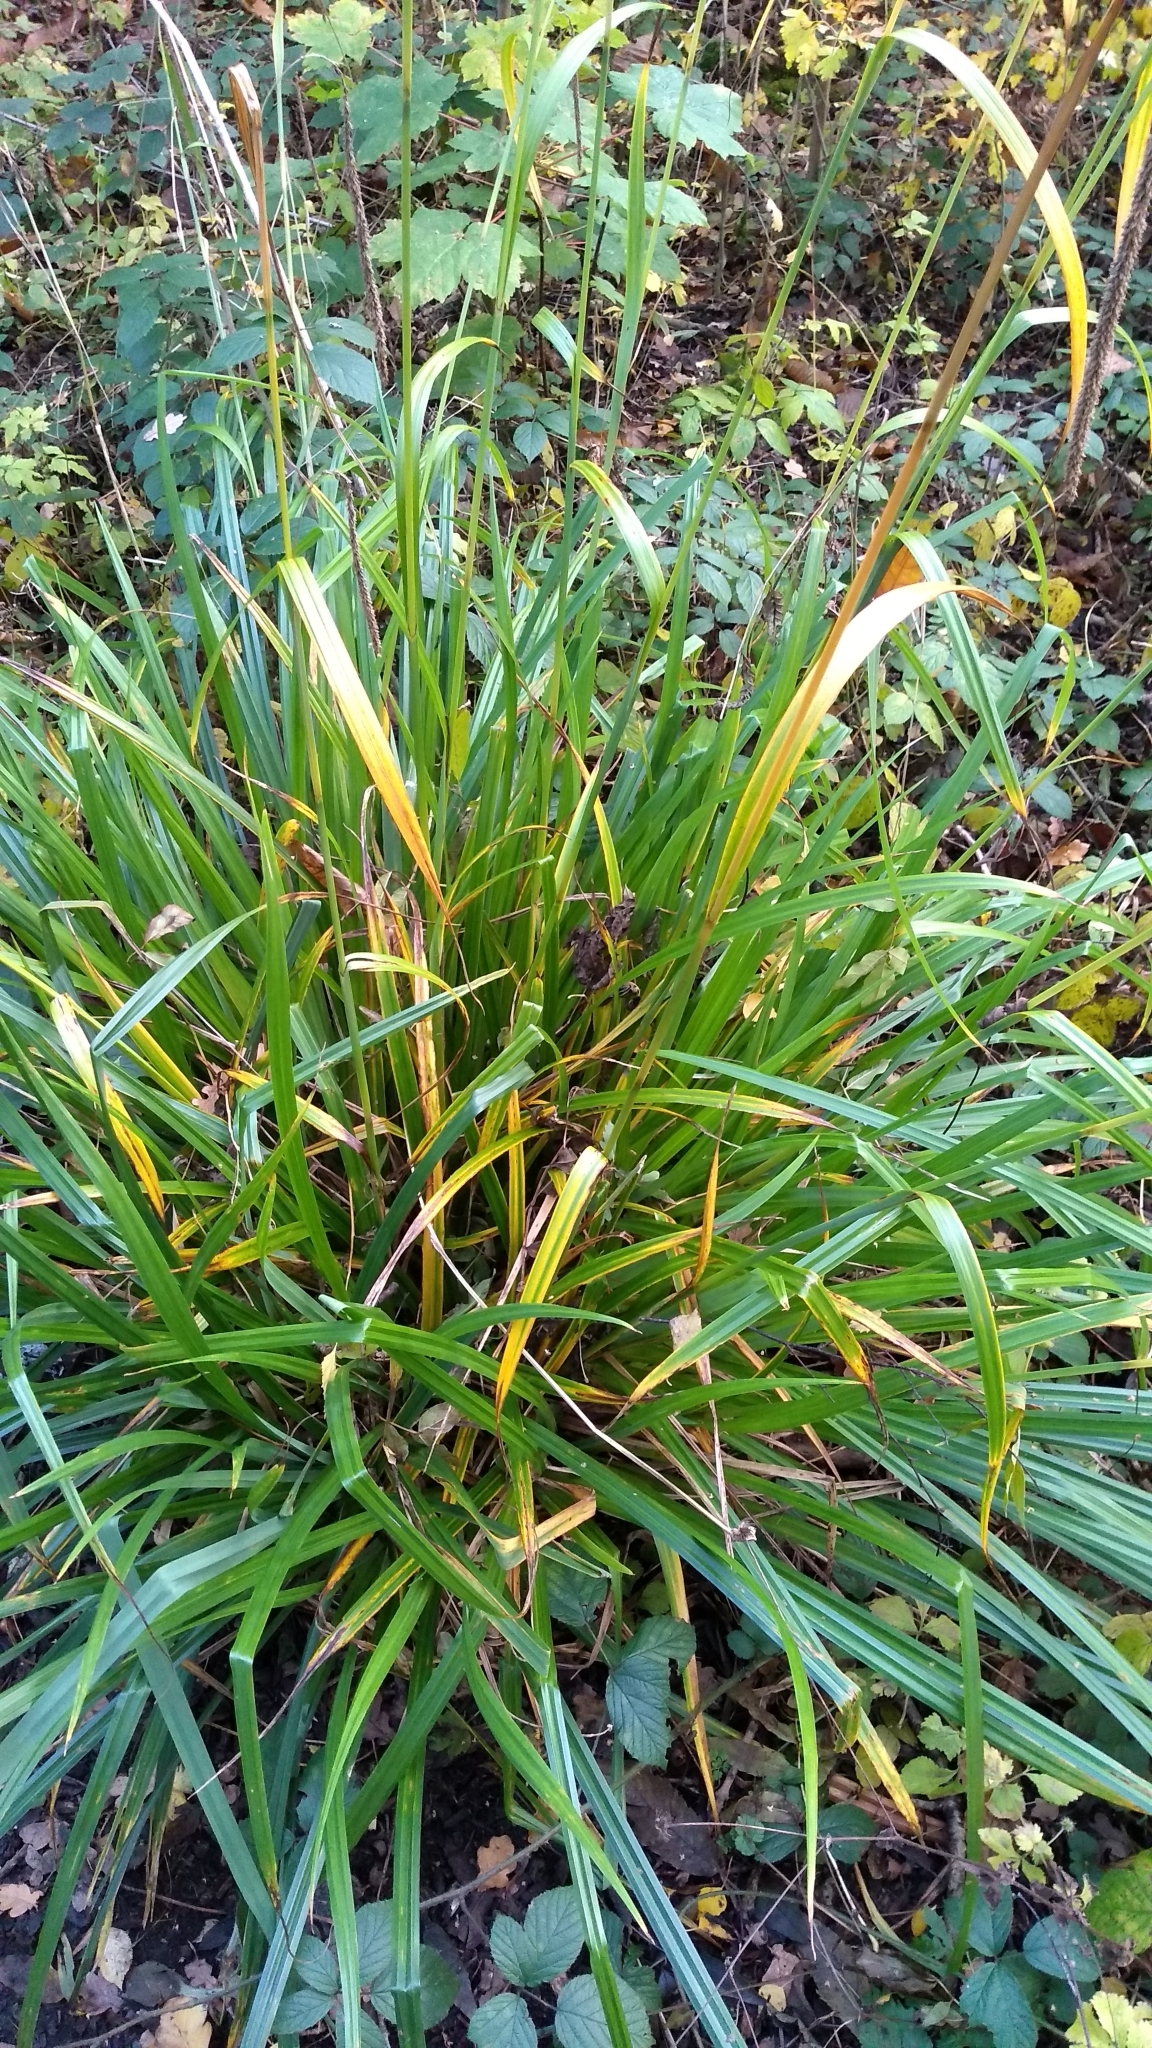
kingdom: Plantae
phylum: Tracheophyta
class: Liliopsida
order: Poales
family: Cyperaceae
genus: Carex
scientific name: Carex pendula
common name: Pendulous sedge
